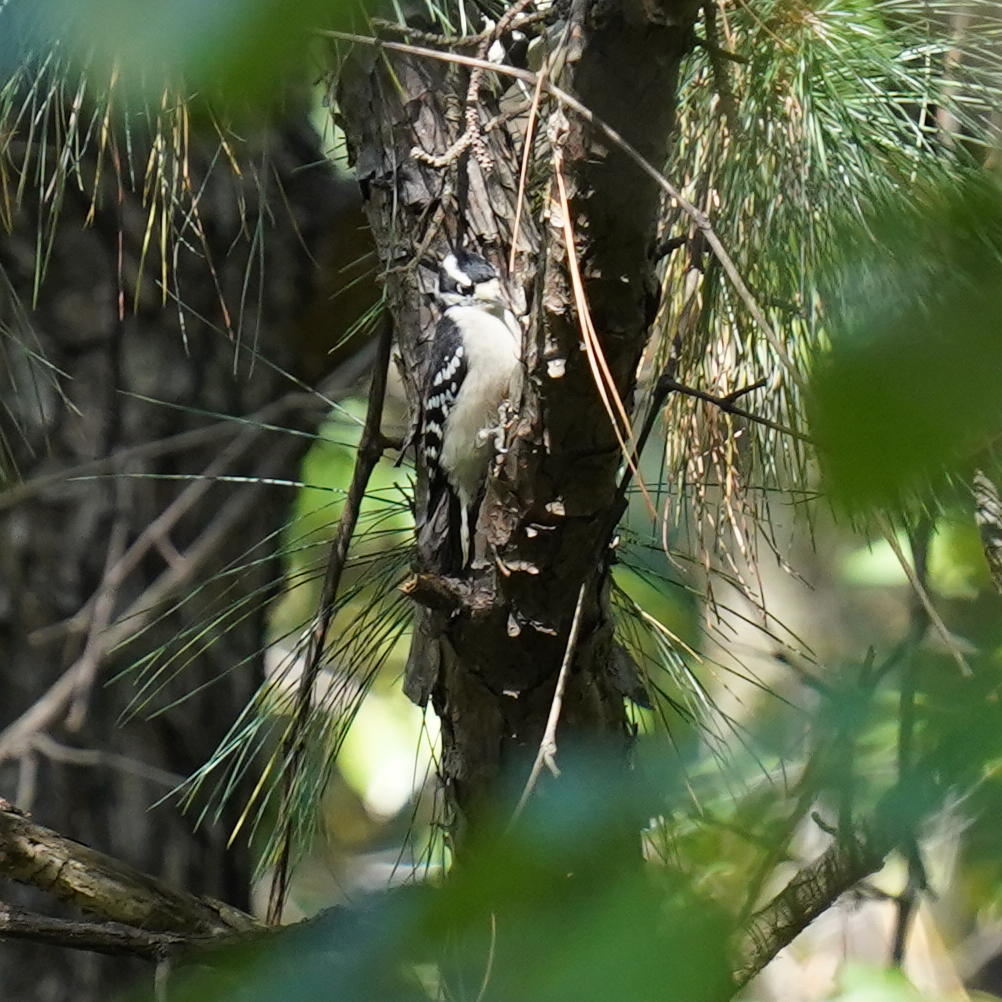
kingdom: Animalia
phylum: Chordata
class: Aves
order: Piciformes
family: Picidae
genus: Dryobates
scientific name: Dryobates pubescens
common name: Downy woodpecker
